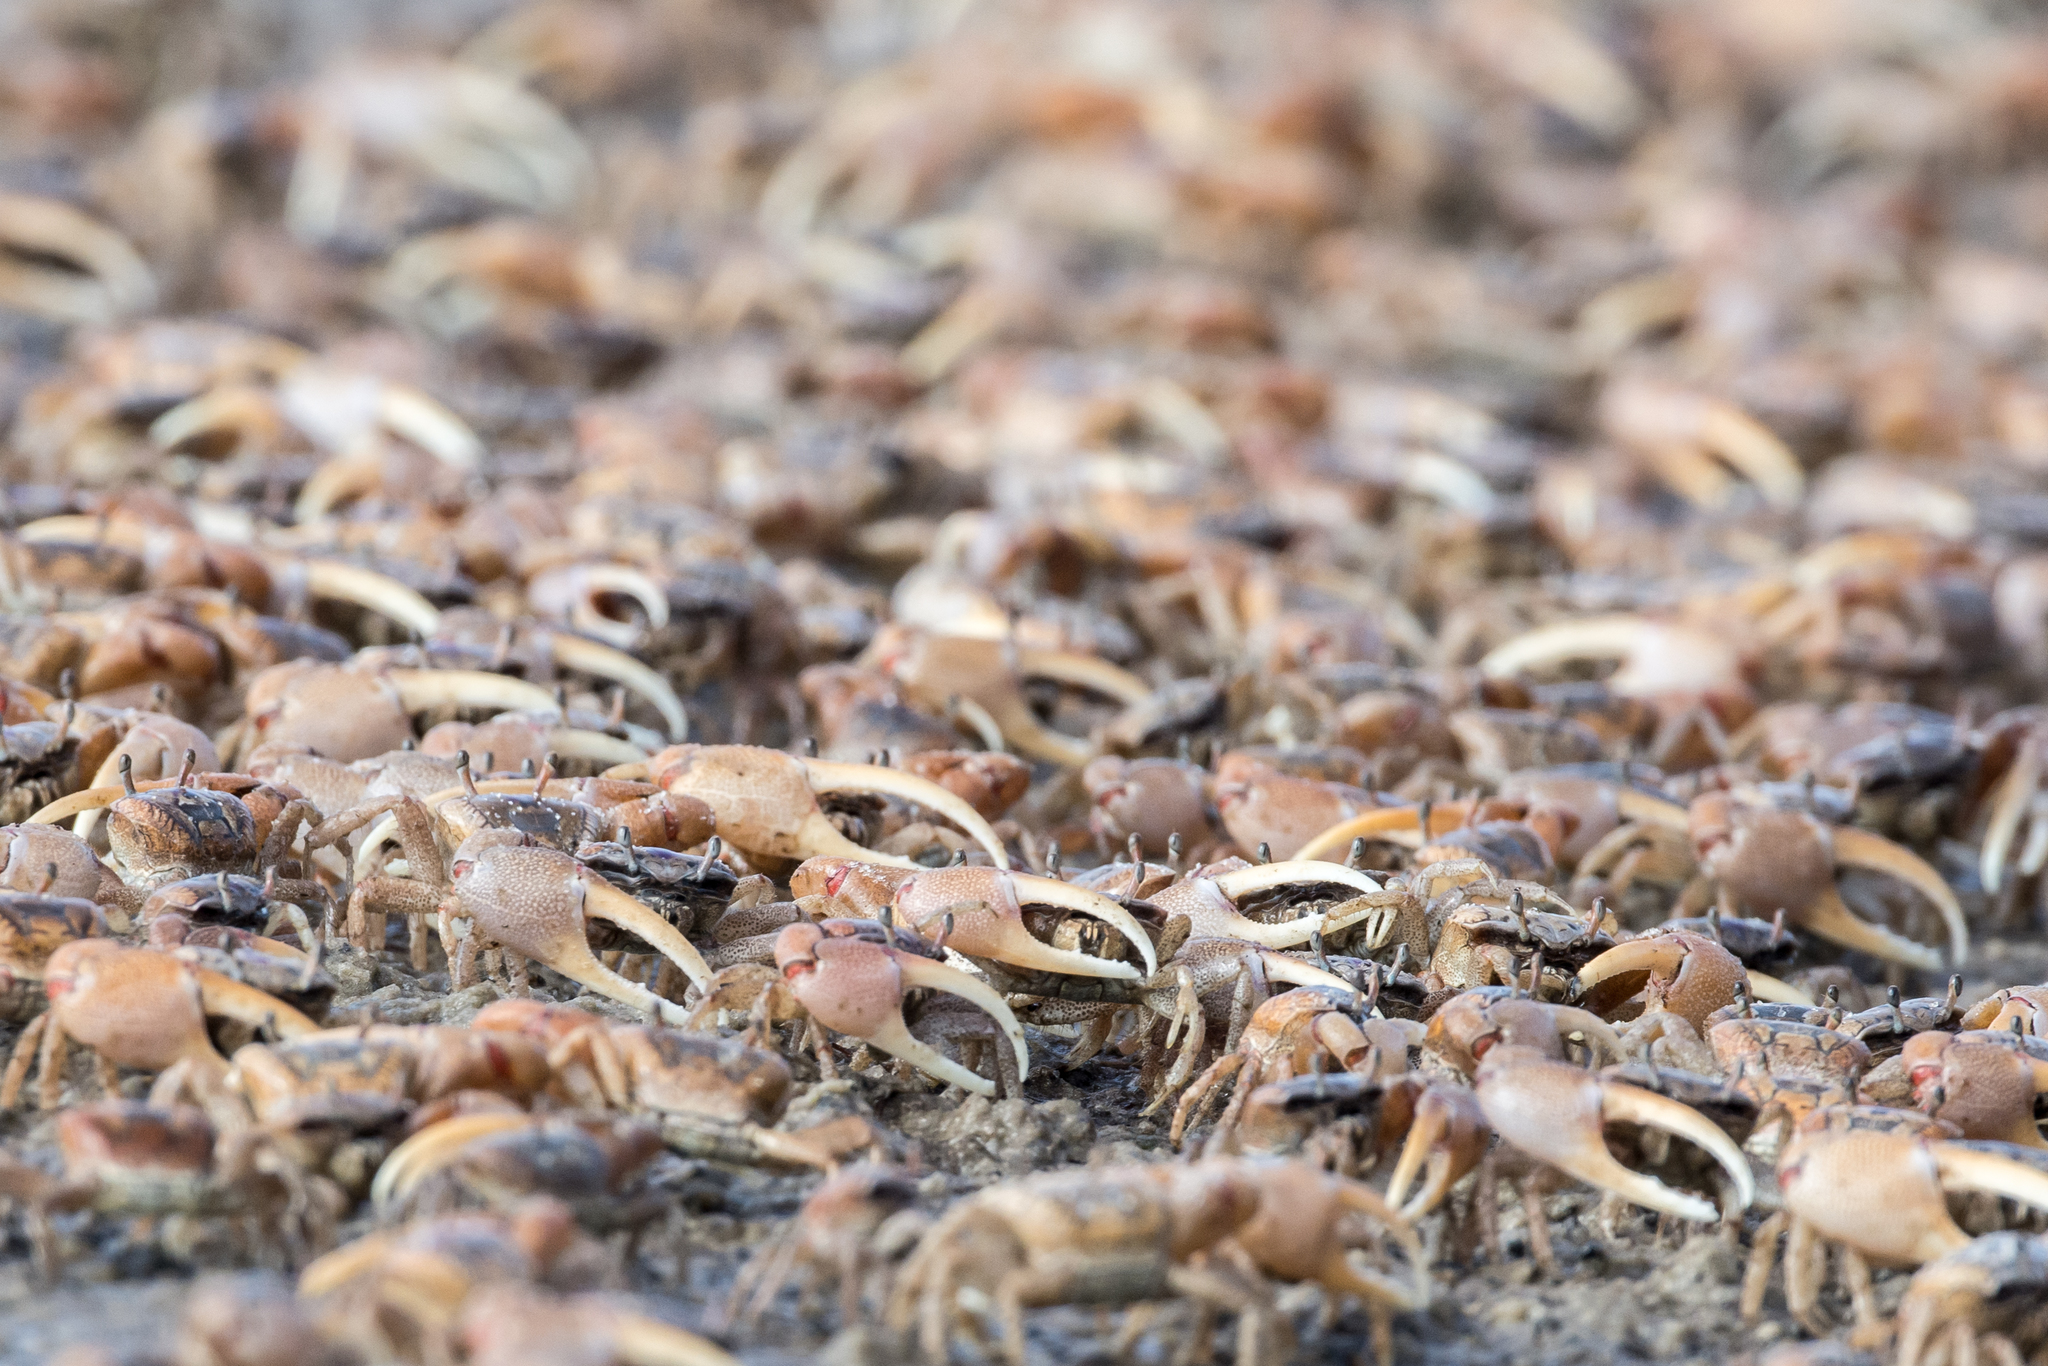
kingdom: Animalia
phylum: Arthropoda
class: Malacostraca
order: Decapoda
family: Ocypodidae
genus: Leptuca
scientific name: Leptuca pugilator
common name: Atlantic sand fiddler crab
